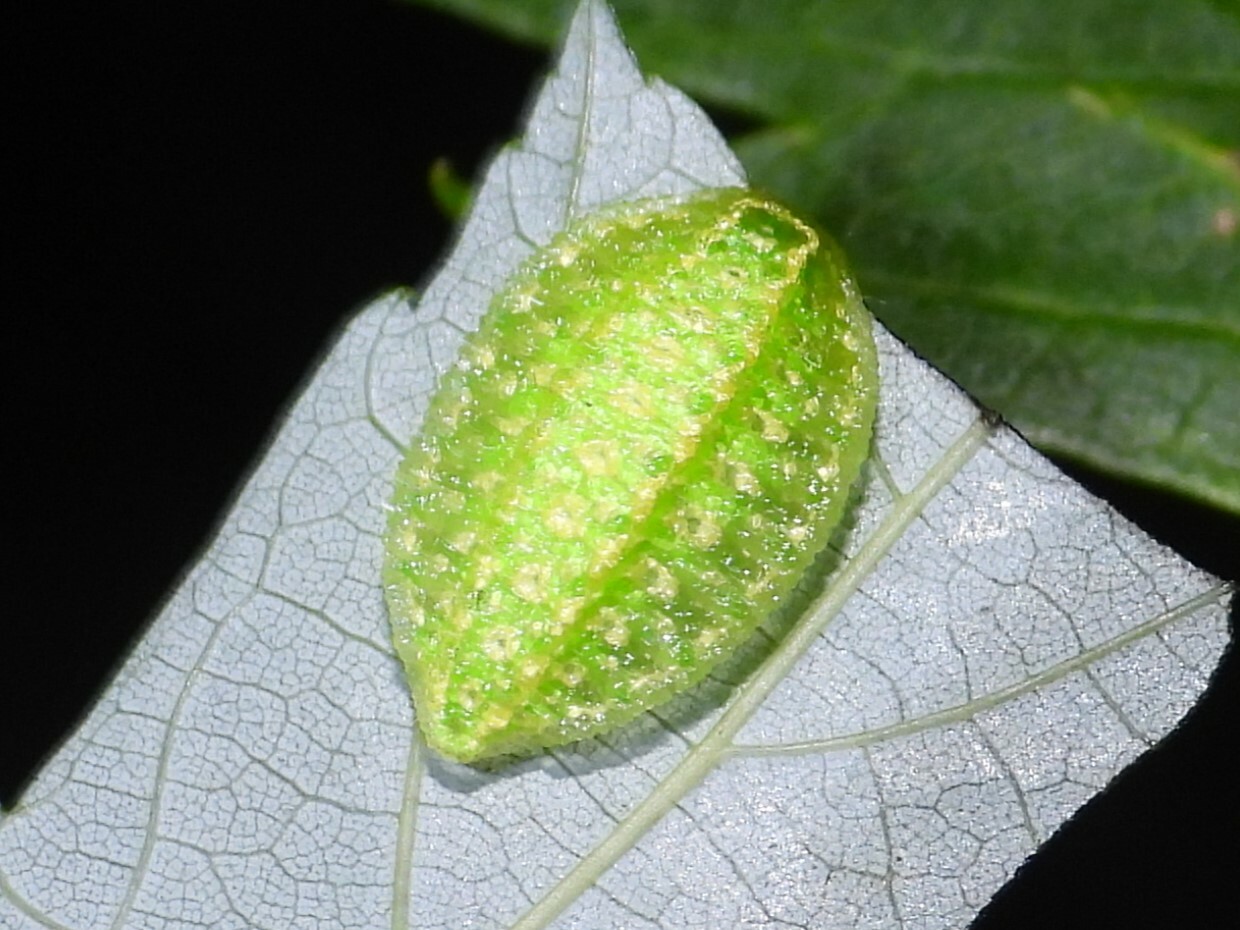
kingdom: Animalia
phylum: Arthropoda
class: Insecta
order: Lepidoptera
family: Limacodidae
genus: Lithacodes
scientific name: Lithacodes fasciola
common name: Yellow-shouldered slug moth
